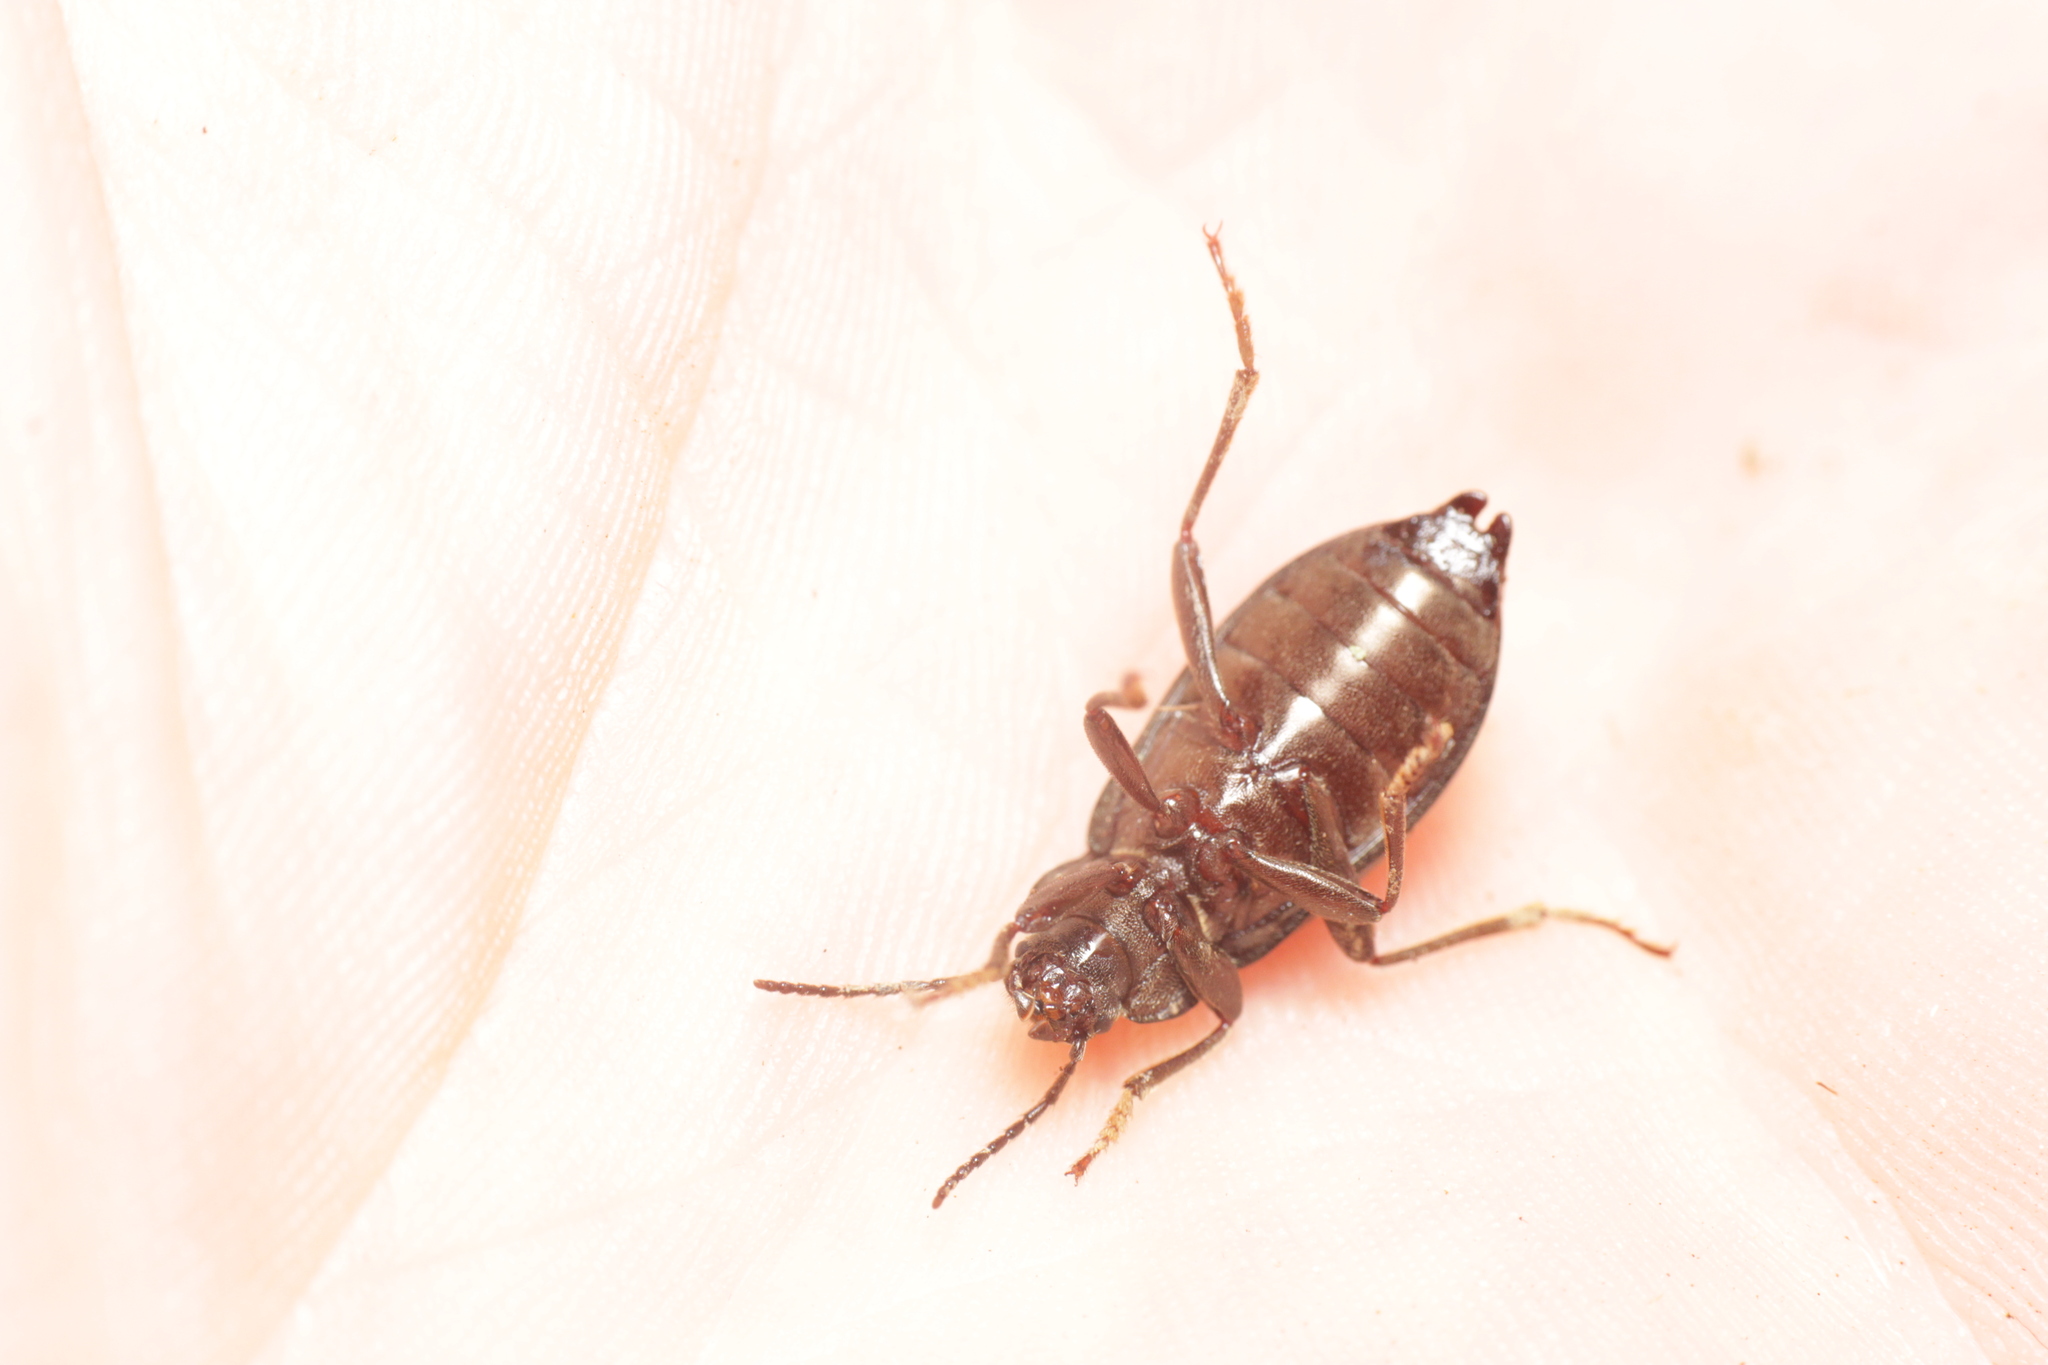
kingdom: Animalia
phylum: Arthropoda
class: Insecta
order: Coleoptera
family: Tenebrionidae
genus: Stenomax
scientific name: Stenomax aeneus
